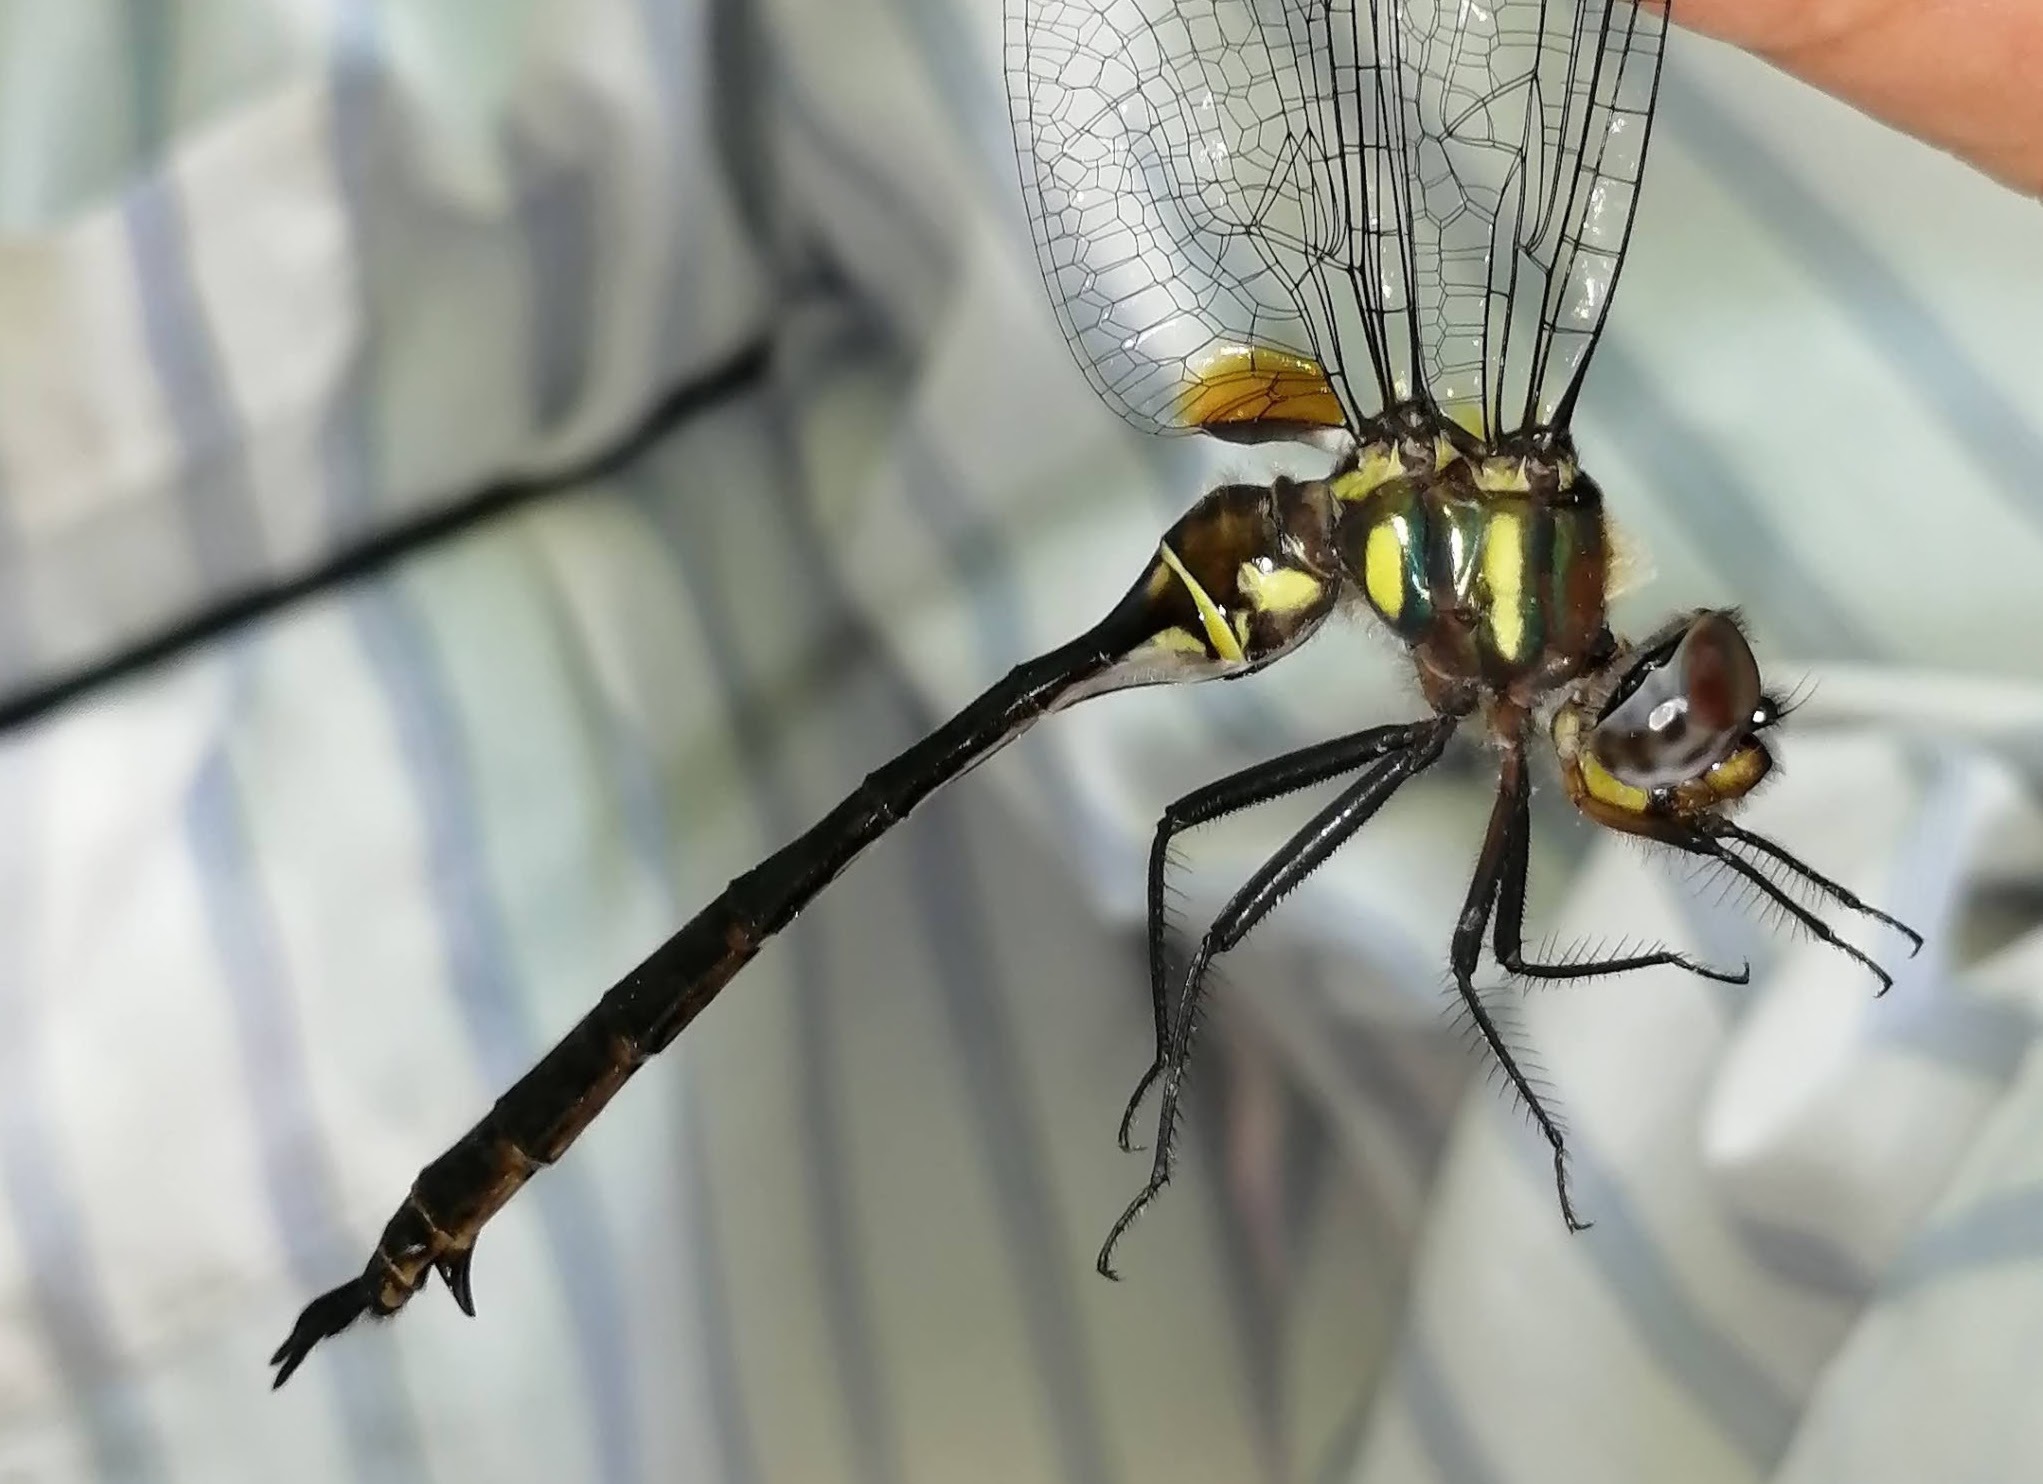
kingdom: Animalia
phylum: Arthropoda
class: Insecta
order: Odonata
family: Corduliidae
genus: Somatochlora
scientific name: Somatochlora tenebrosa
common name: Clamp-tipped emerald
